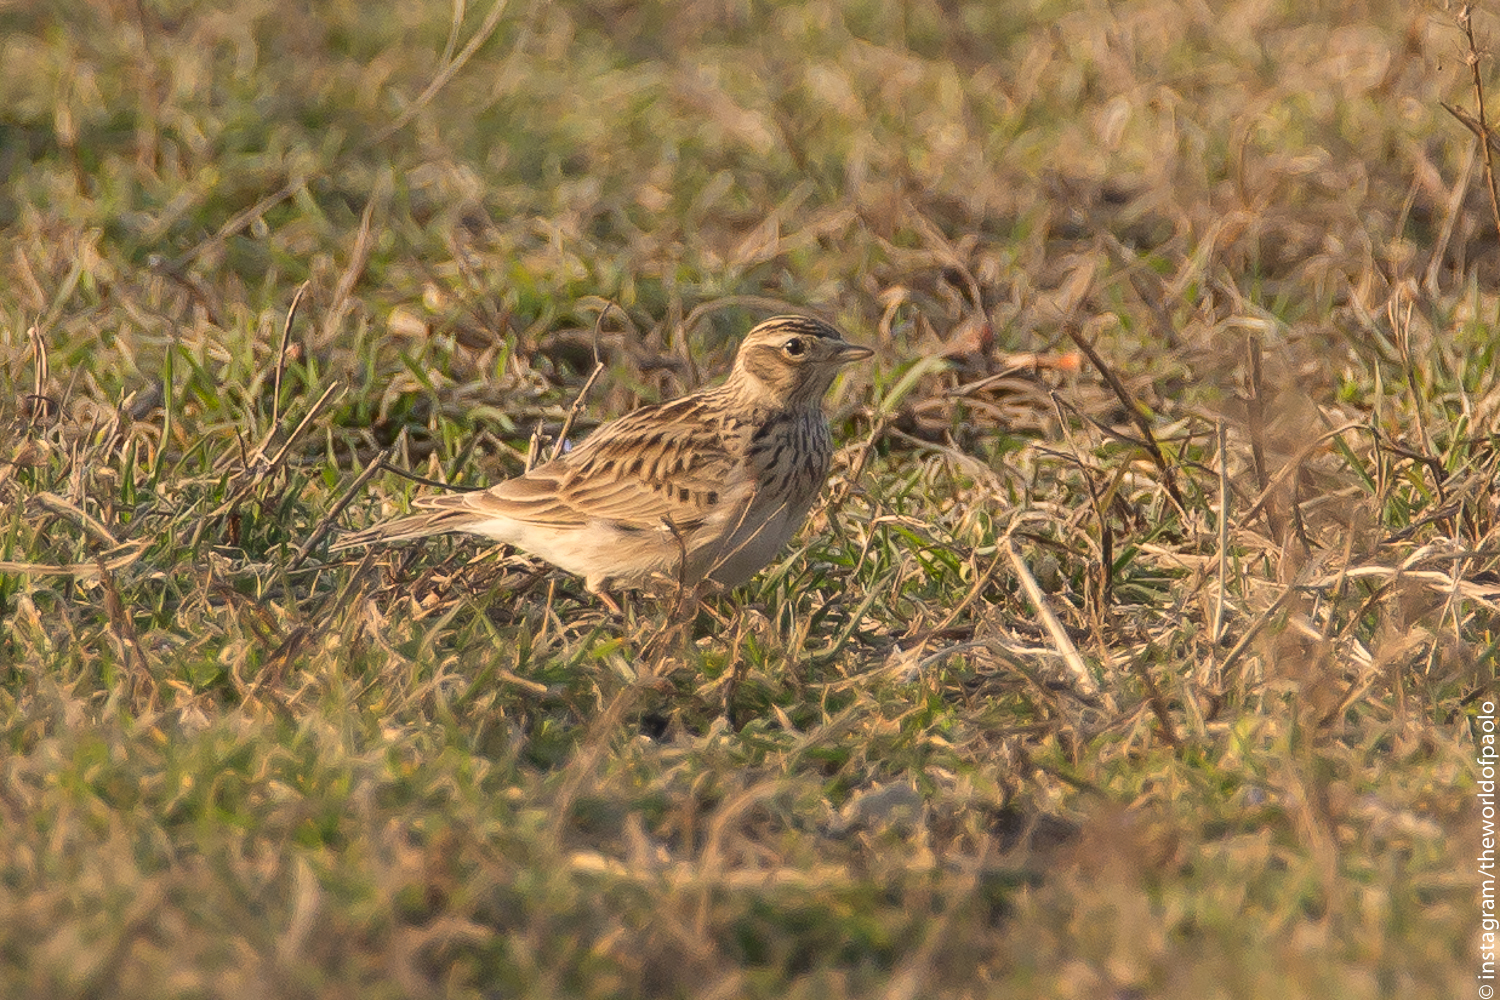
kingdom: Animalia
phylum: Chordata
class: Aves
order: Passeriformes
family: Alaudidae
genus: Alauda
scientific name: Alauda arvensis
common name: Eurasian skylark
